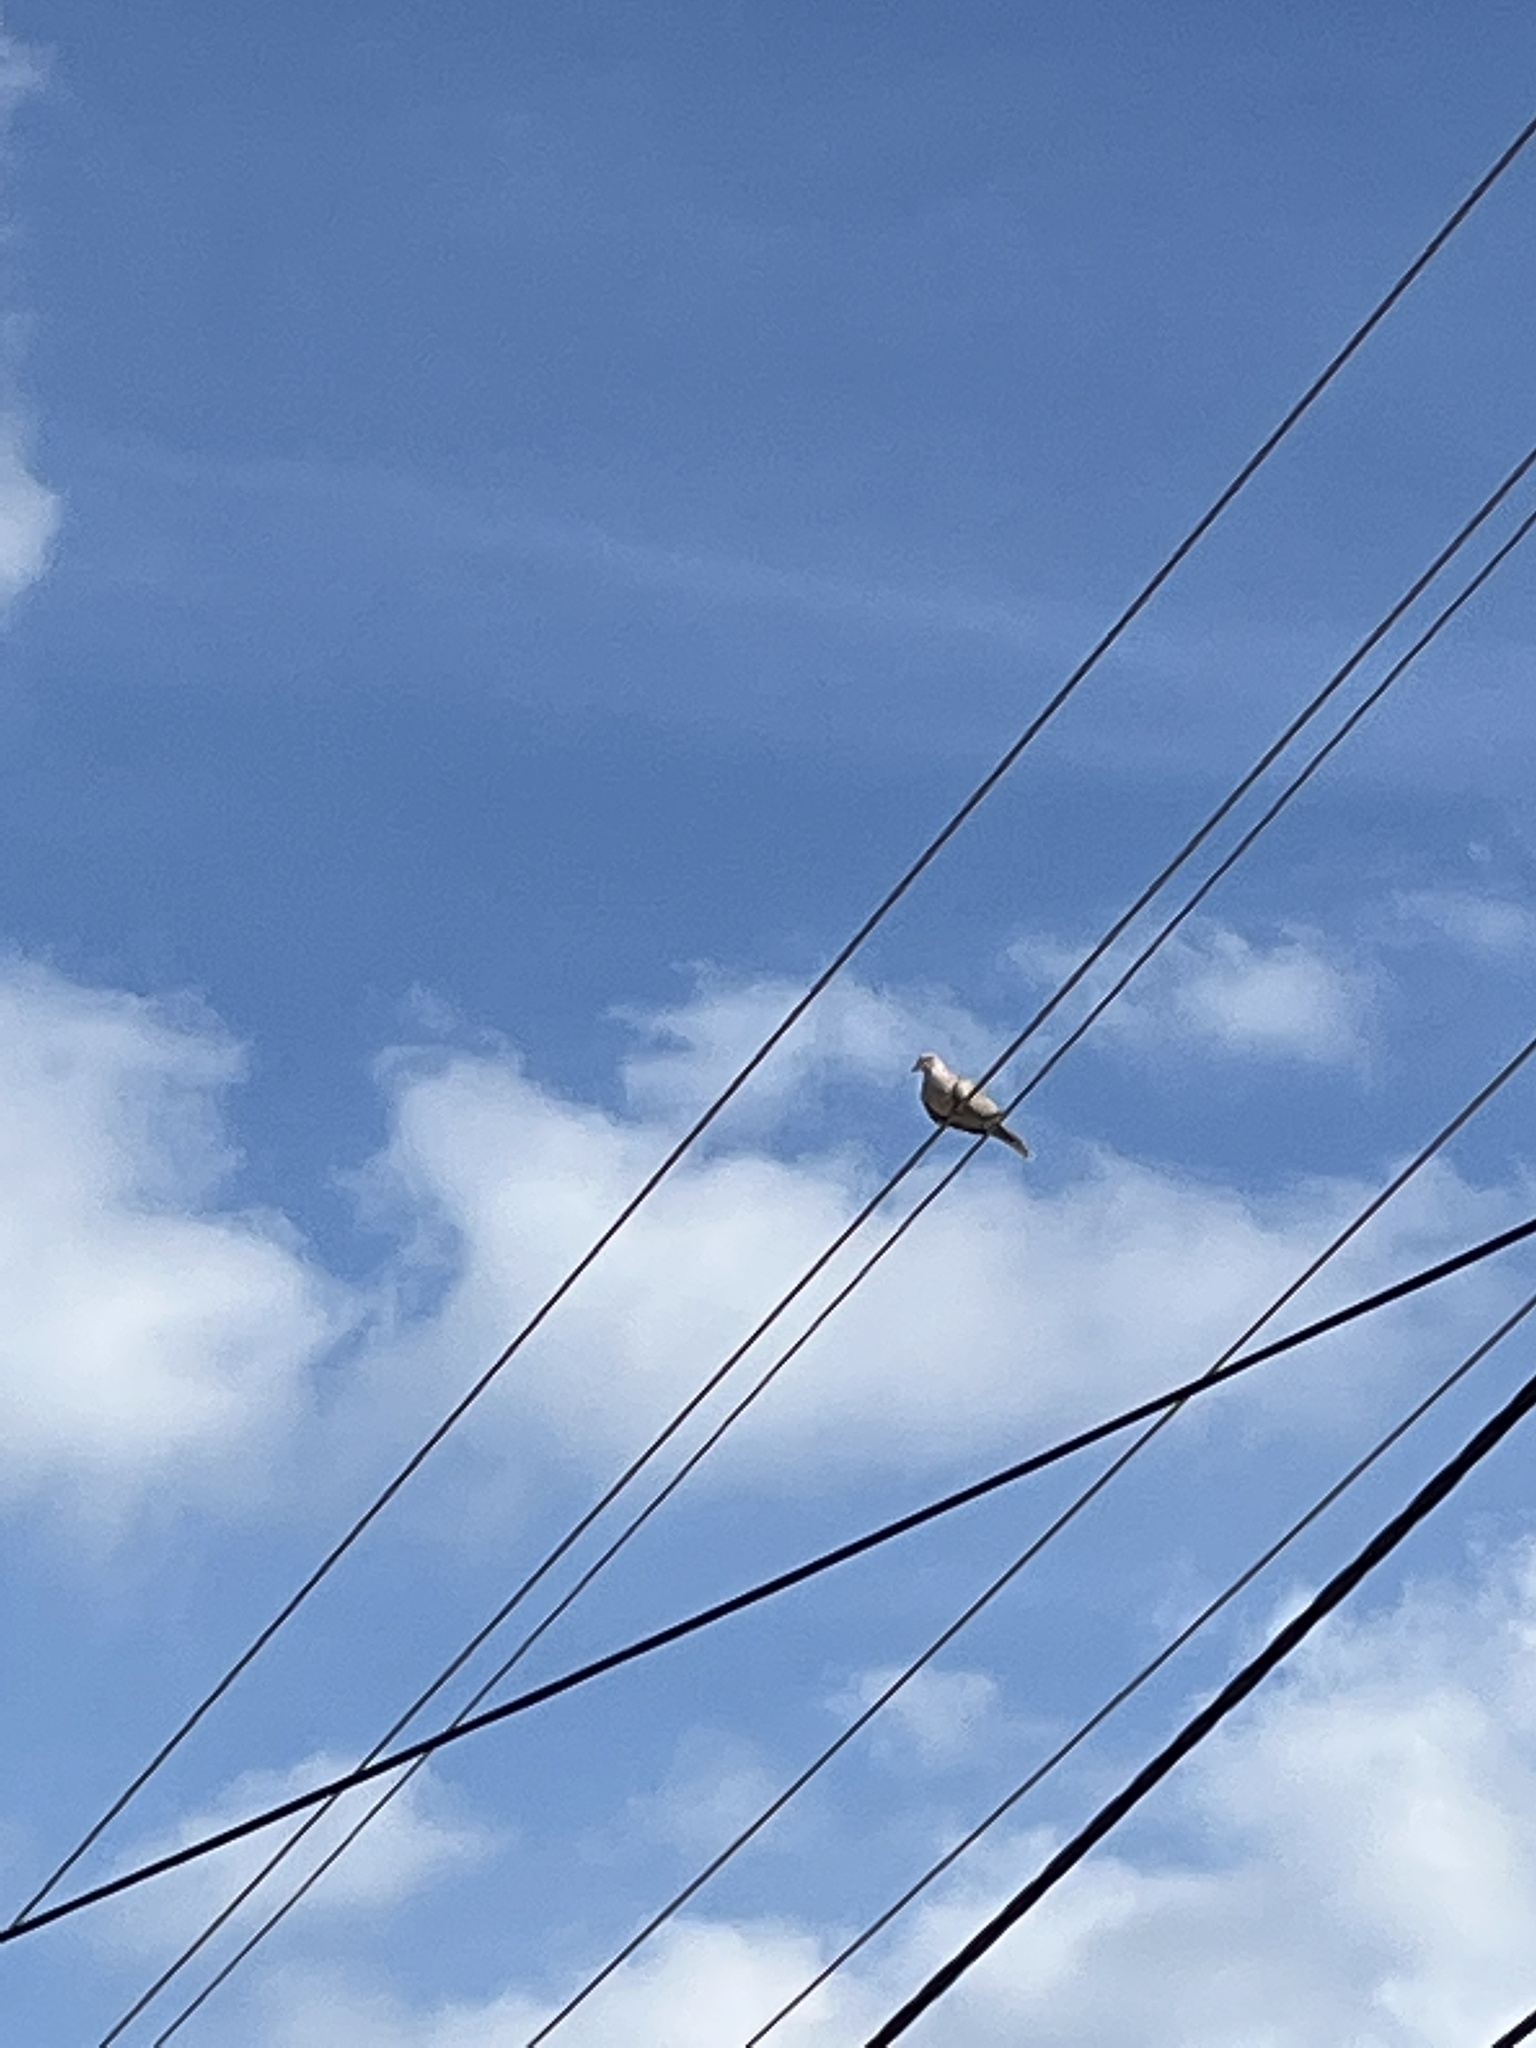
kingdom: Animalia
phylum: Chordata
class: Aves
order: Columbiformes
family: Columbidae
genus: Streptopelia
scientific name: Streptopelia decaocto
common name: Eurasian collared dove
